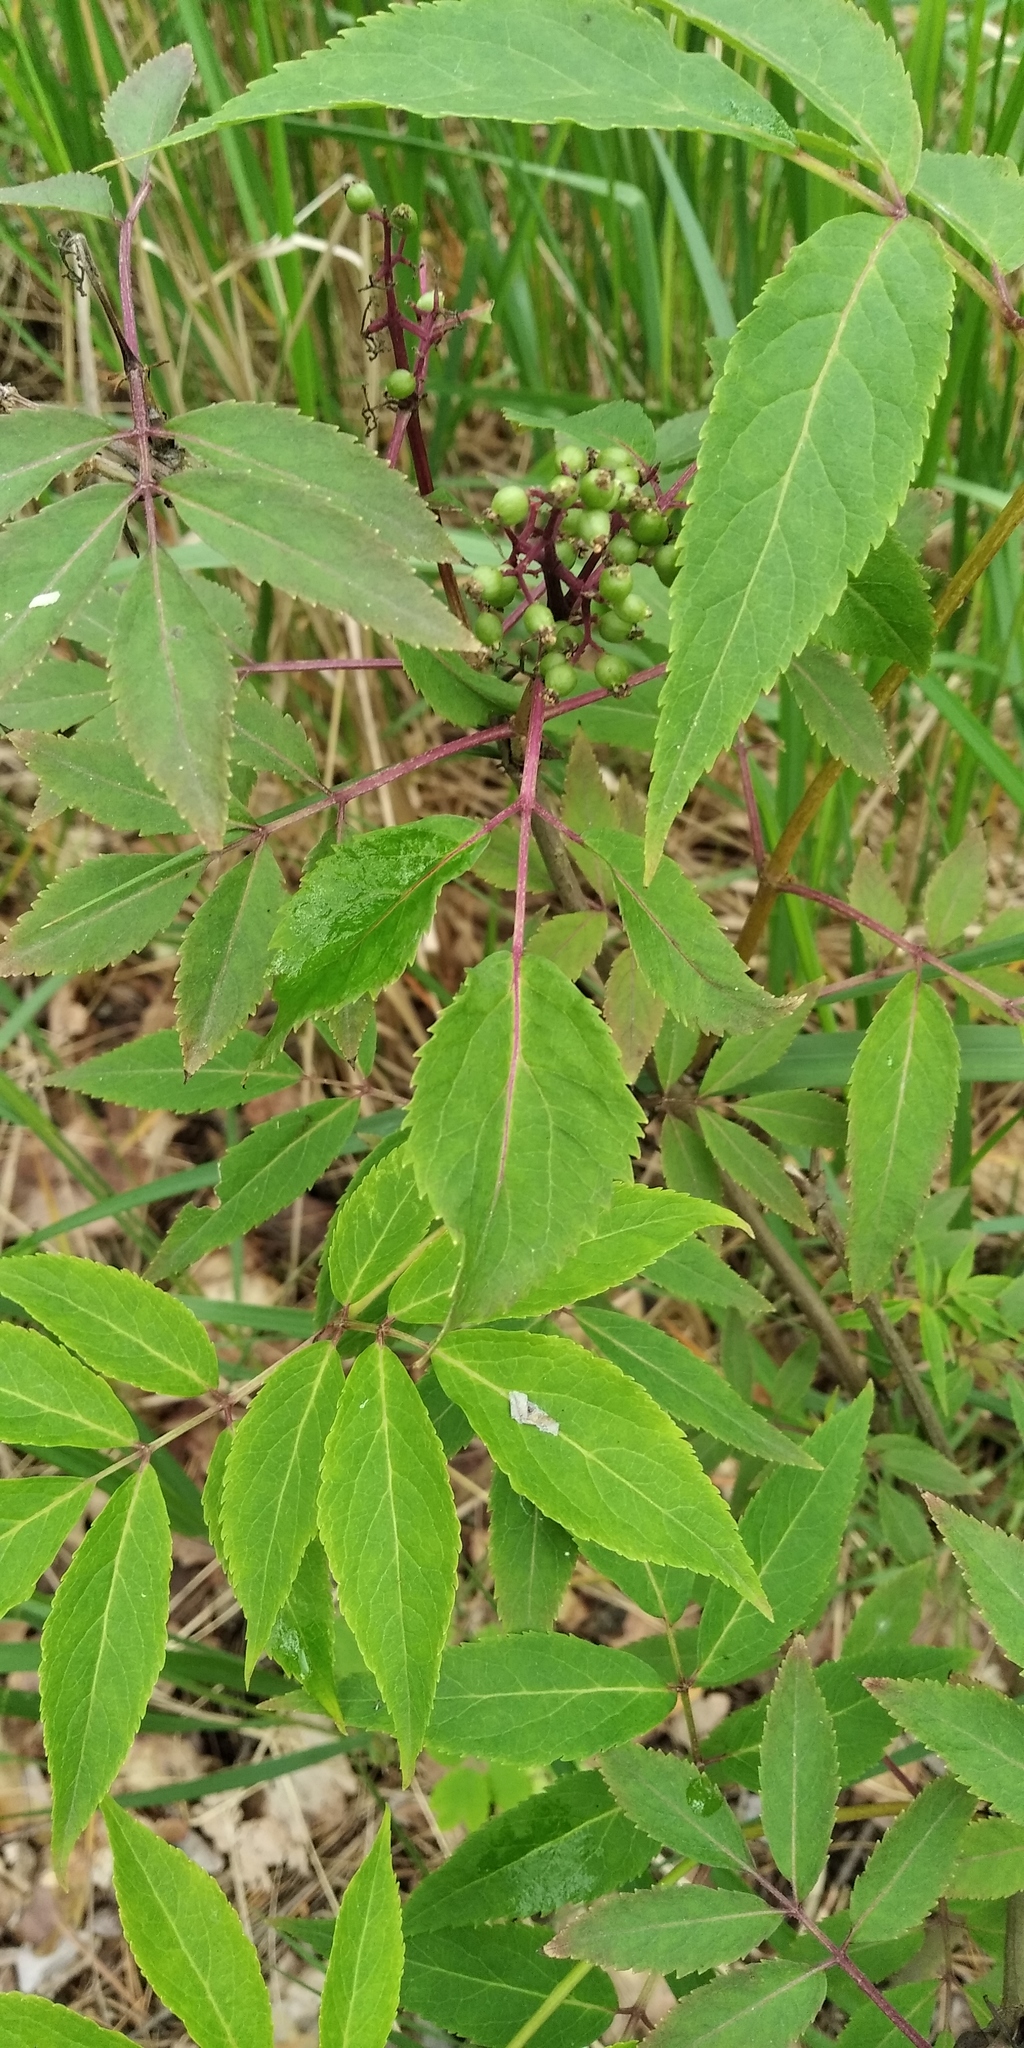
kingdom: Plantae
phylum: Tracheophyta
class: Magnoliopsida
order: Dipsacales
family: Viburnaceae
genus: Sambucus
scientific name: Sambucus racemosa
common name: Red-berried elder
